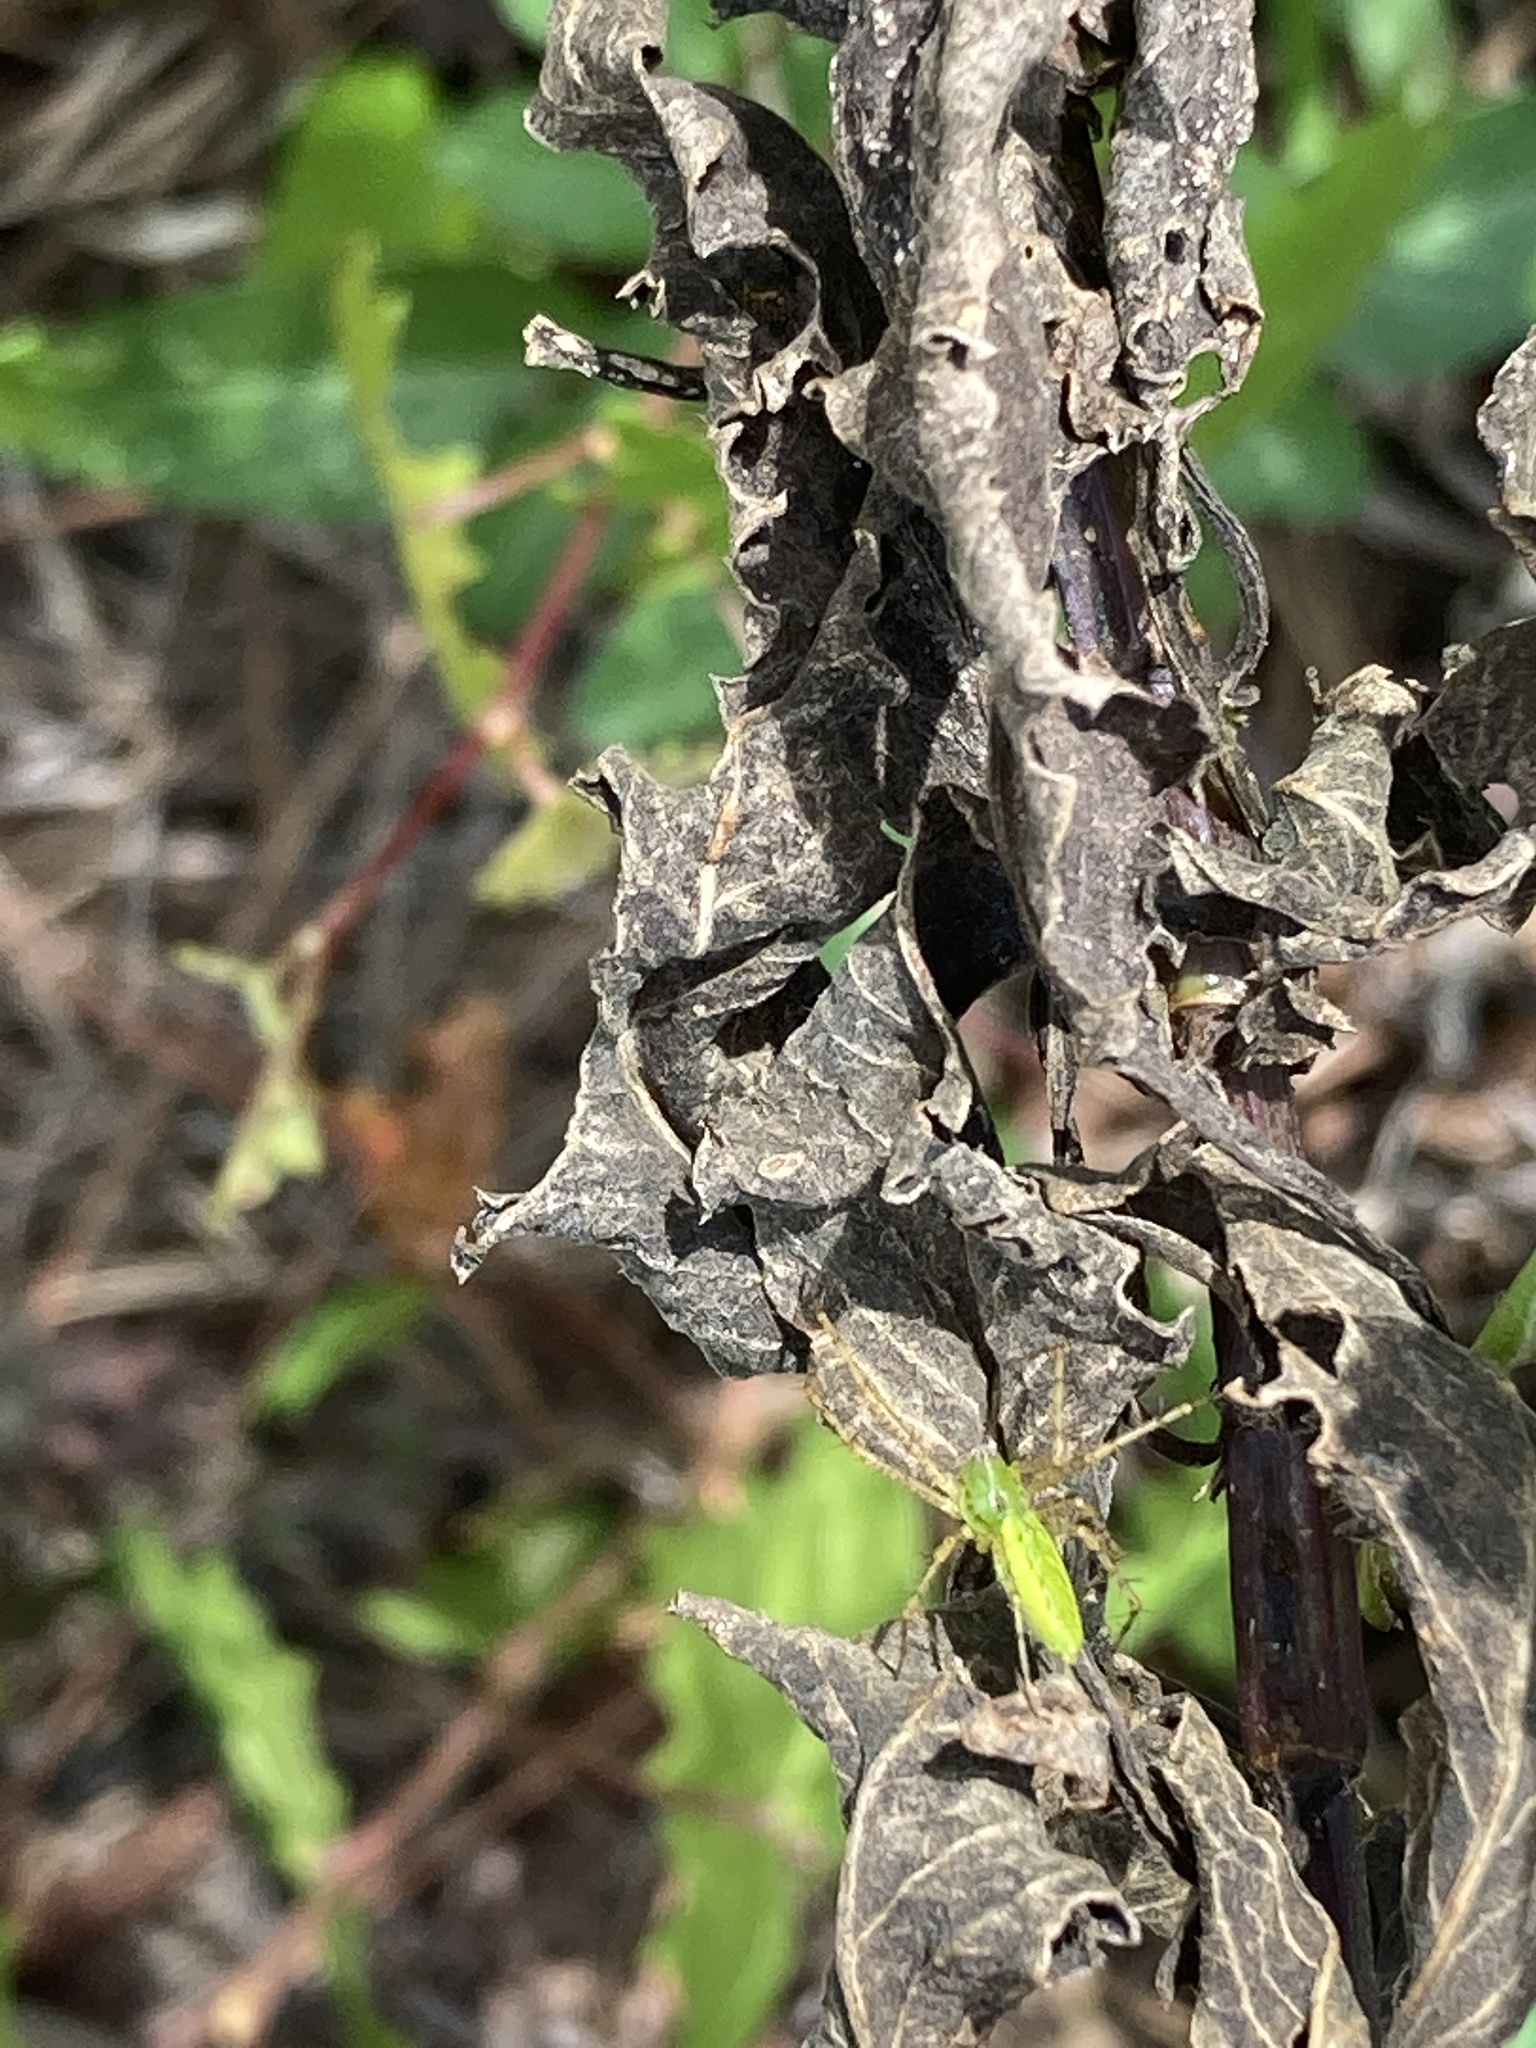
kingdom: Animalia
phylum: Arthropoda
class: Arachnida
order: Araneae
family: Oxyopidae
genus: Peucetia
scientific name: Peucetia viridans
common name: Lynx spiders
